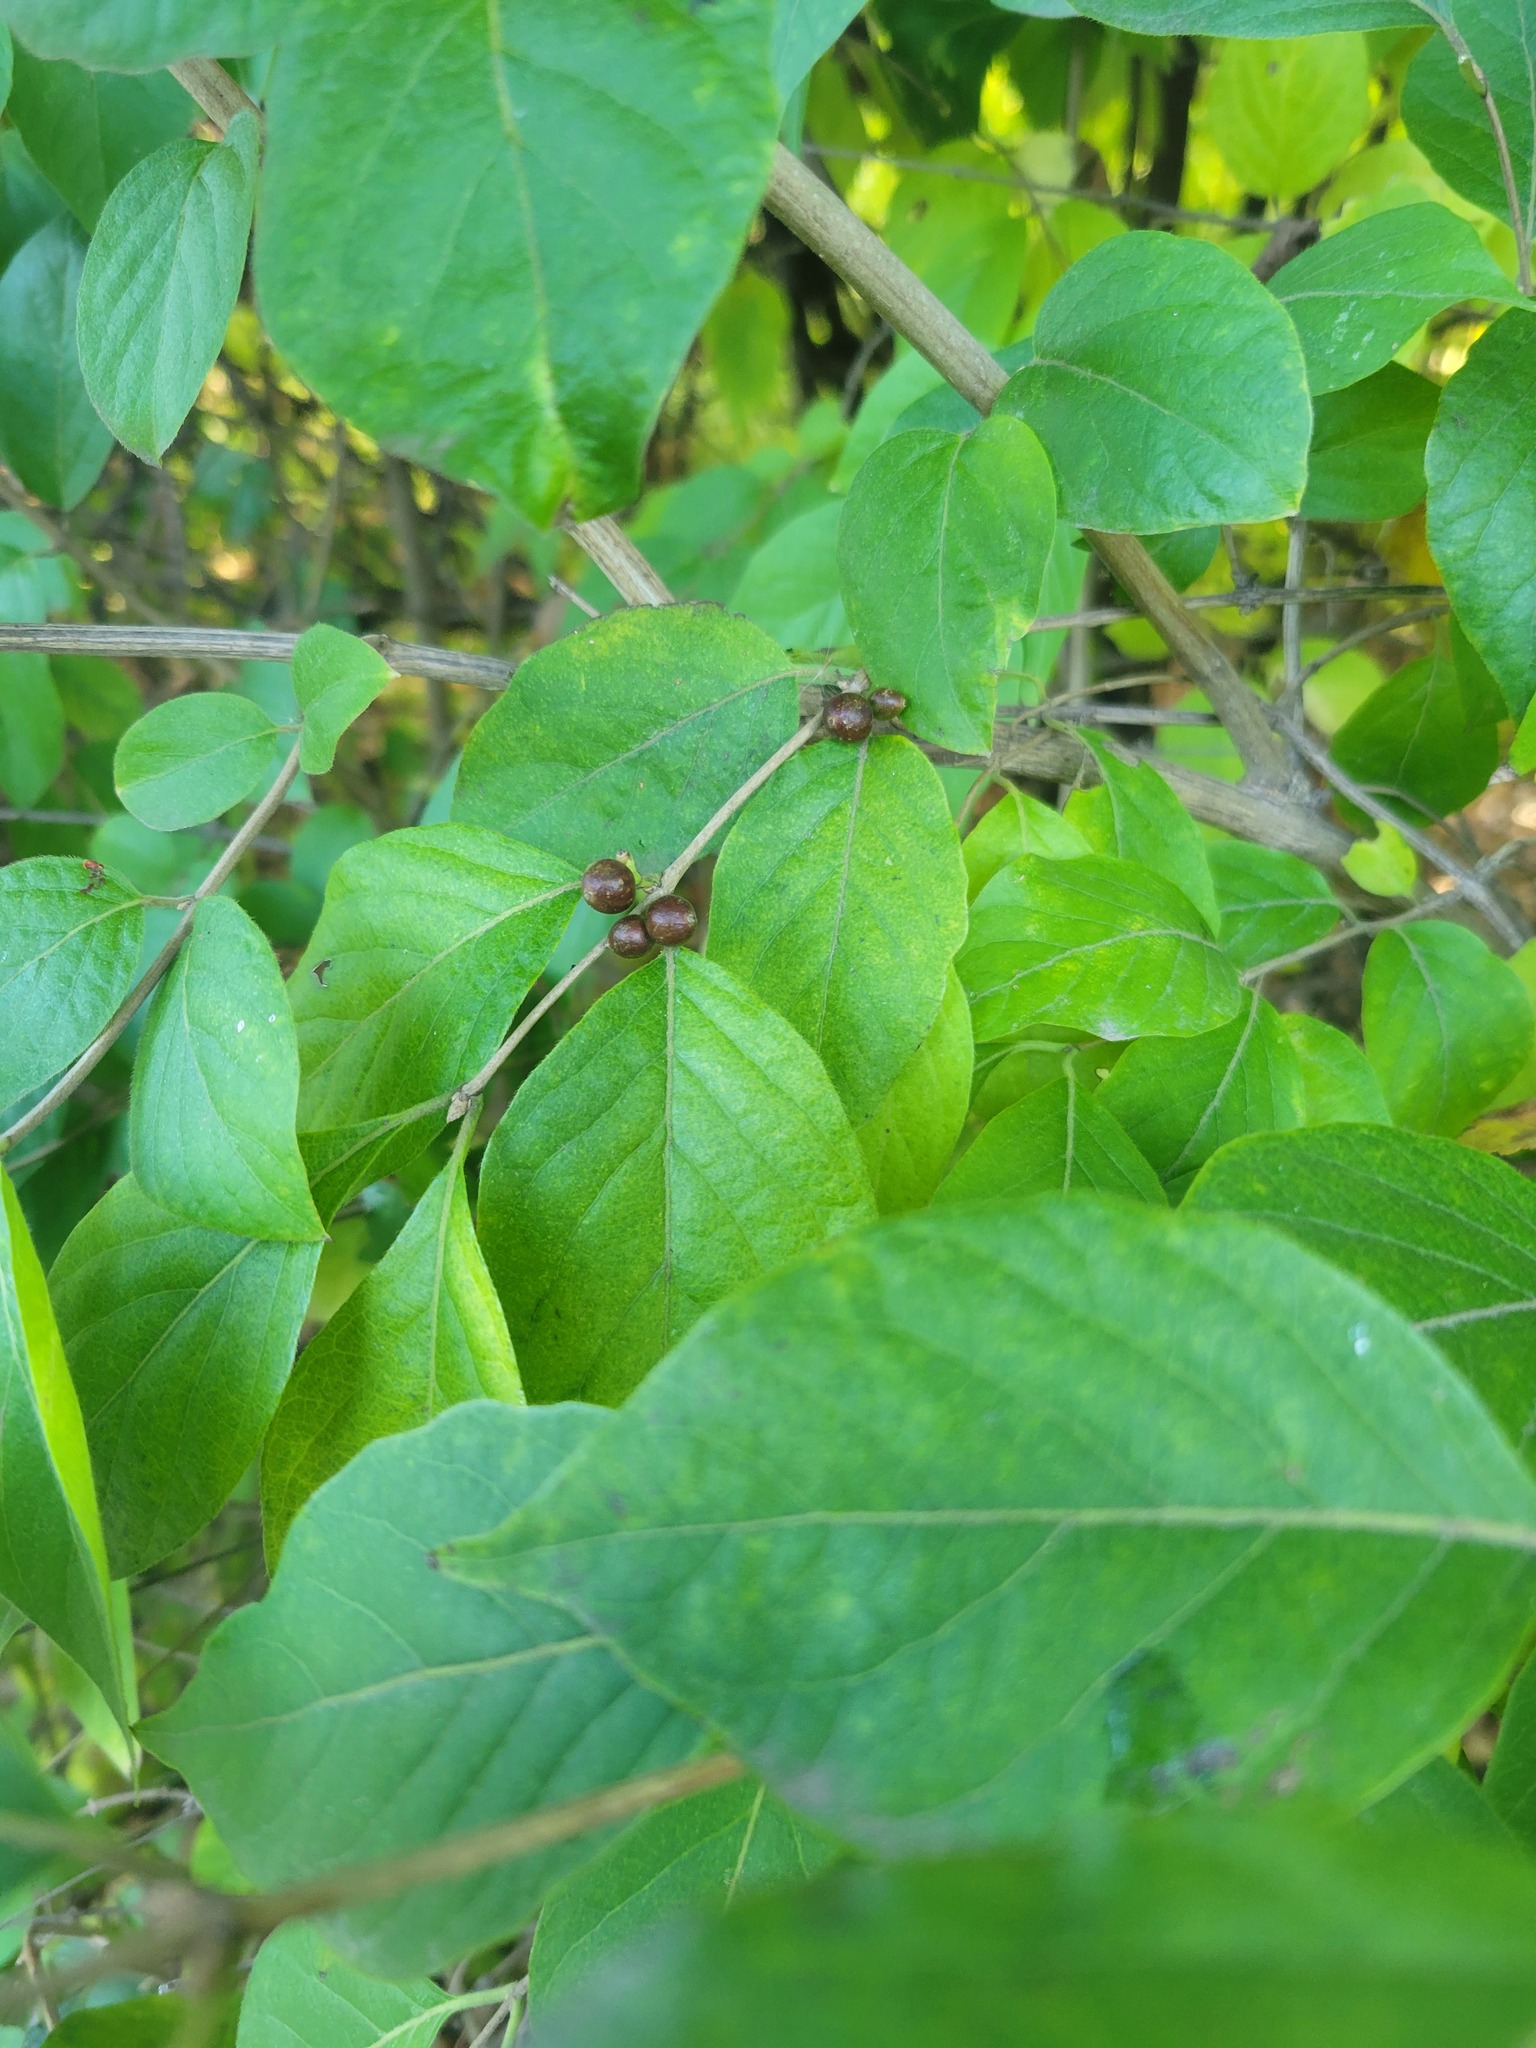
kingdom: Plantae
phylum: Tracheophyta
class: Magnoliopsida
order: Dipsacales
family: Caprifoliaceae
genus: Lonicera
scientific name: Lonicera maackii
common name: Amur honeysuckle
